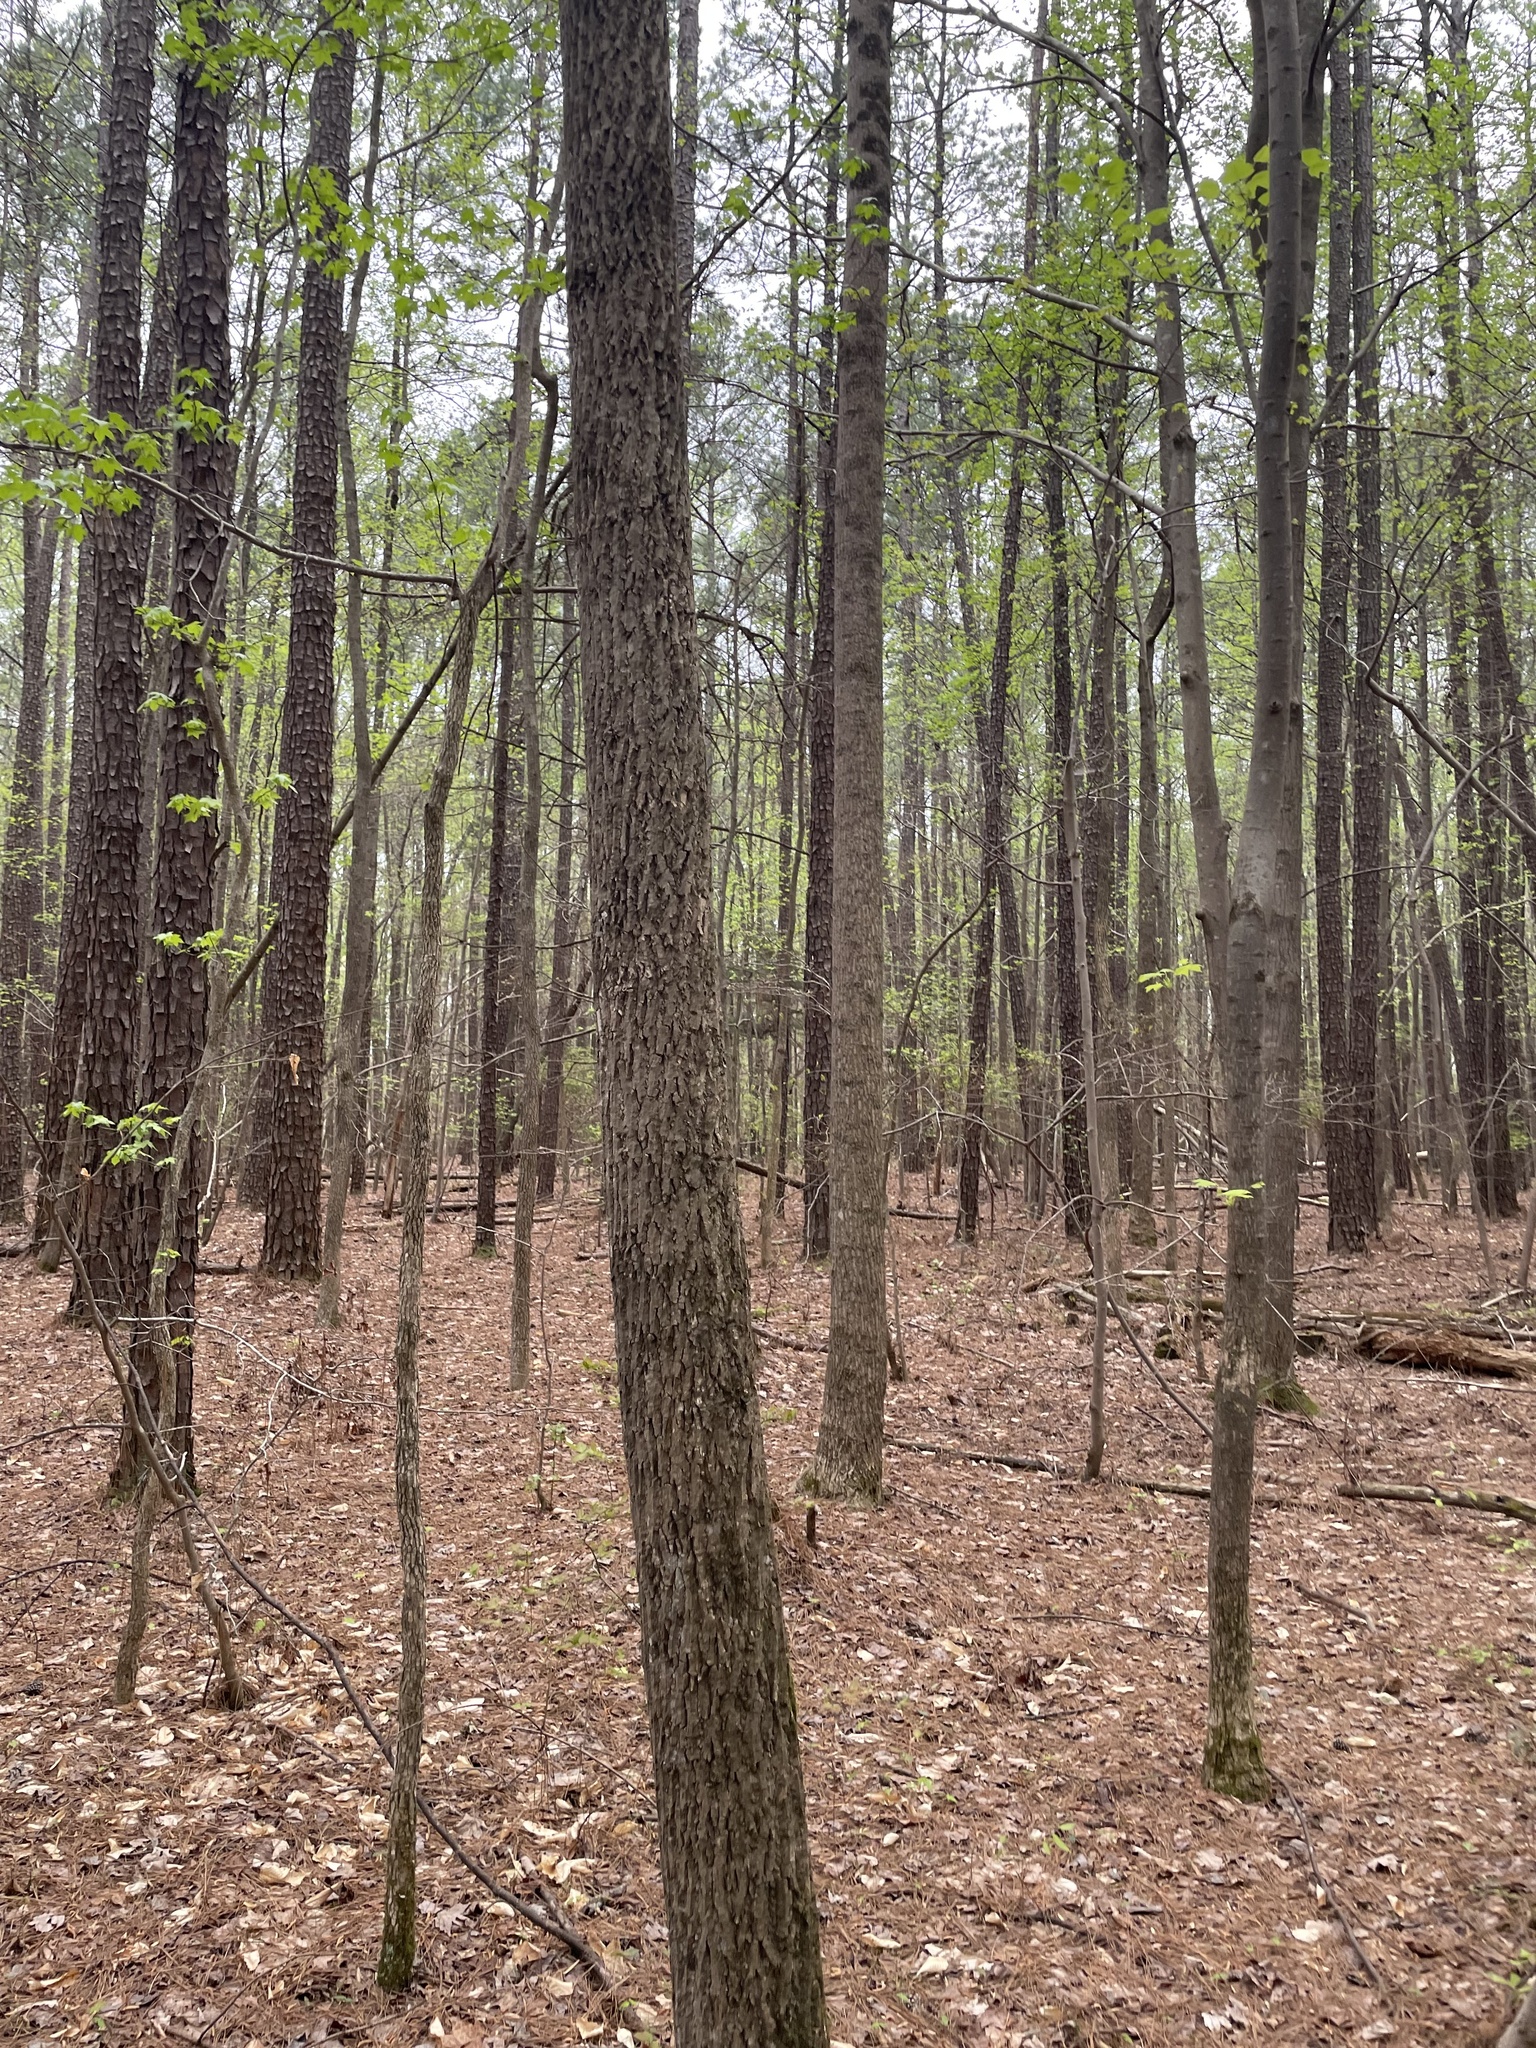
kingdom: Plantae
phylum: Tracheophyta
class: Magnoliopsida
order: Magnoliales
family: Magnoliaceae
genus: Liriodendron
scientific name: Liriodendron tulipifera
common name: Tulip tree
